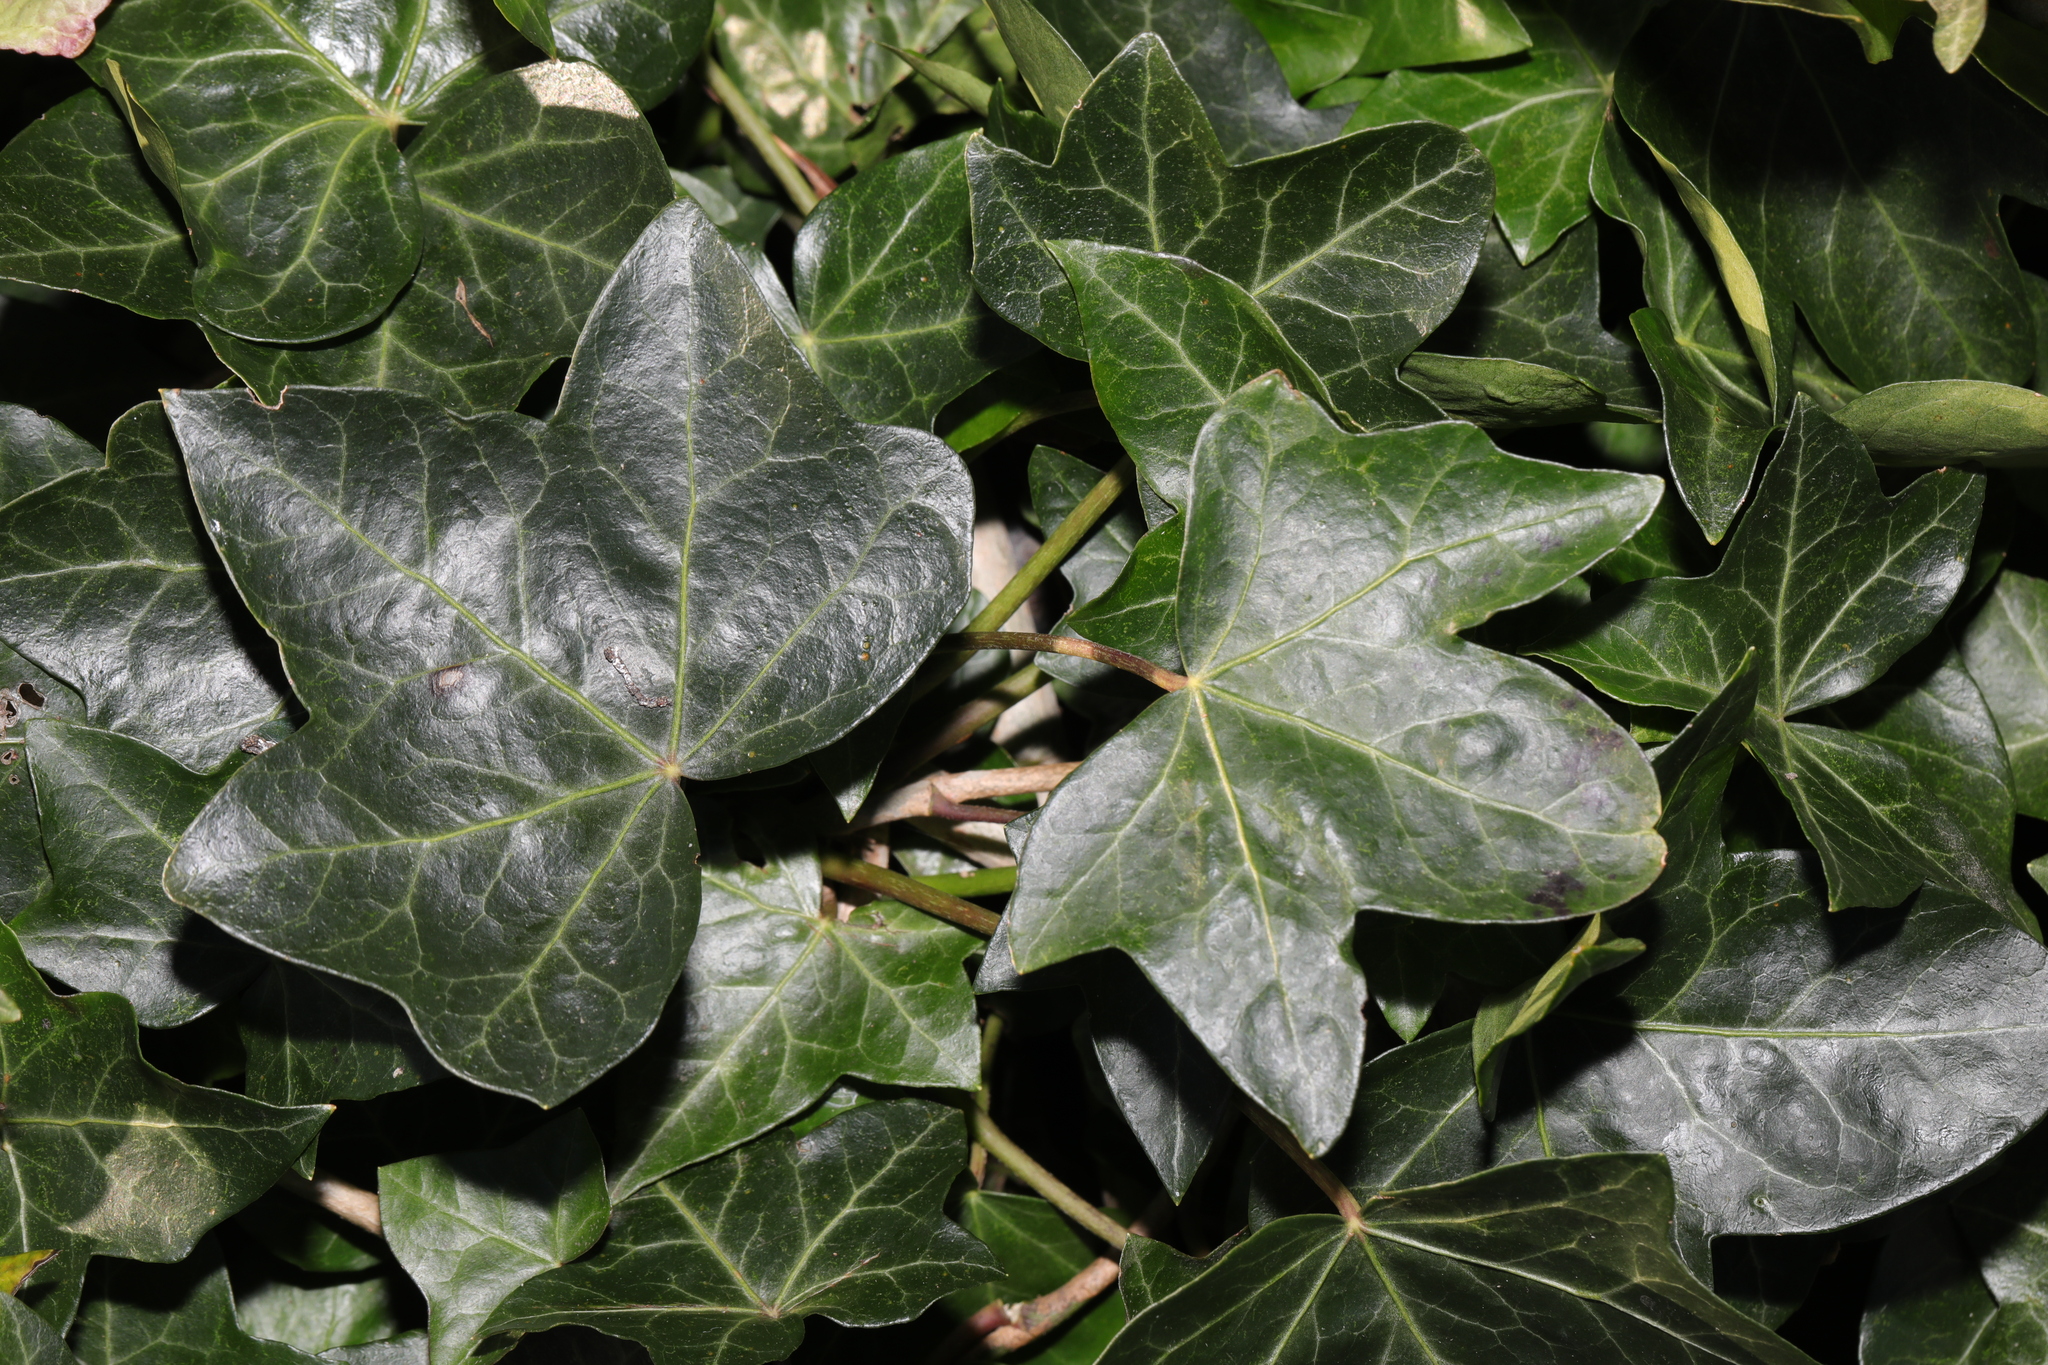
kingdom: Plantae
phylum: Tracheophyta
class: Magnoliopsida
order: Apiales
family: Araliaceae
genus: Hedera
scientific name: Hedera helix
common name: Ivy
